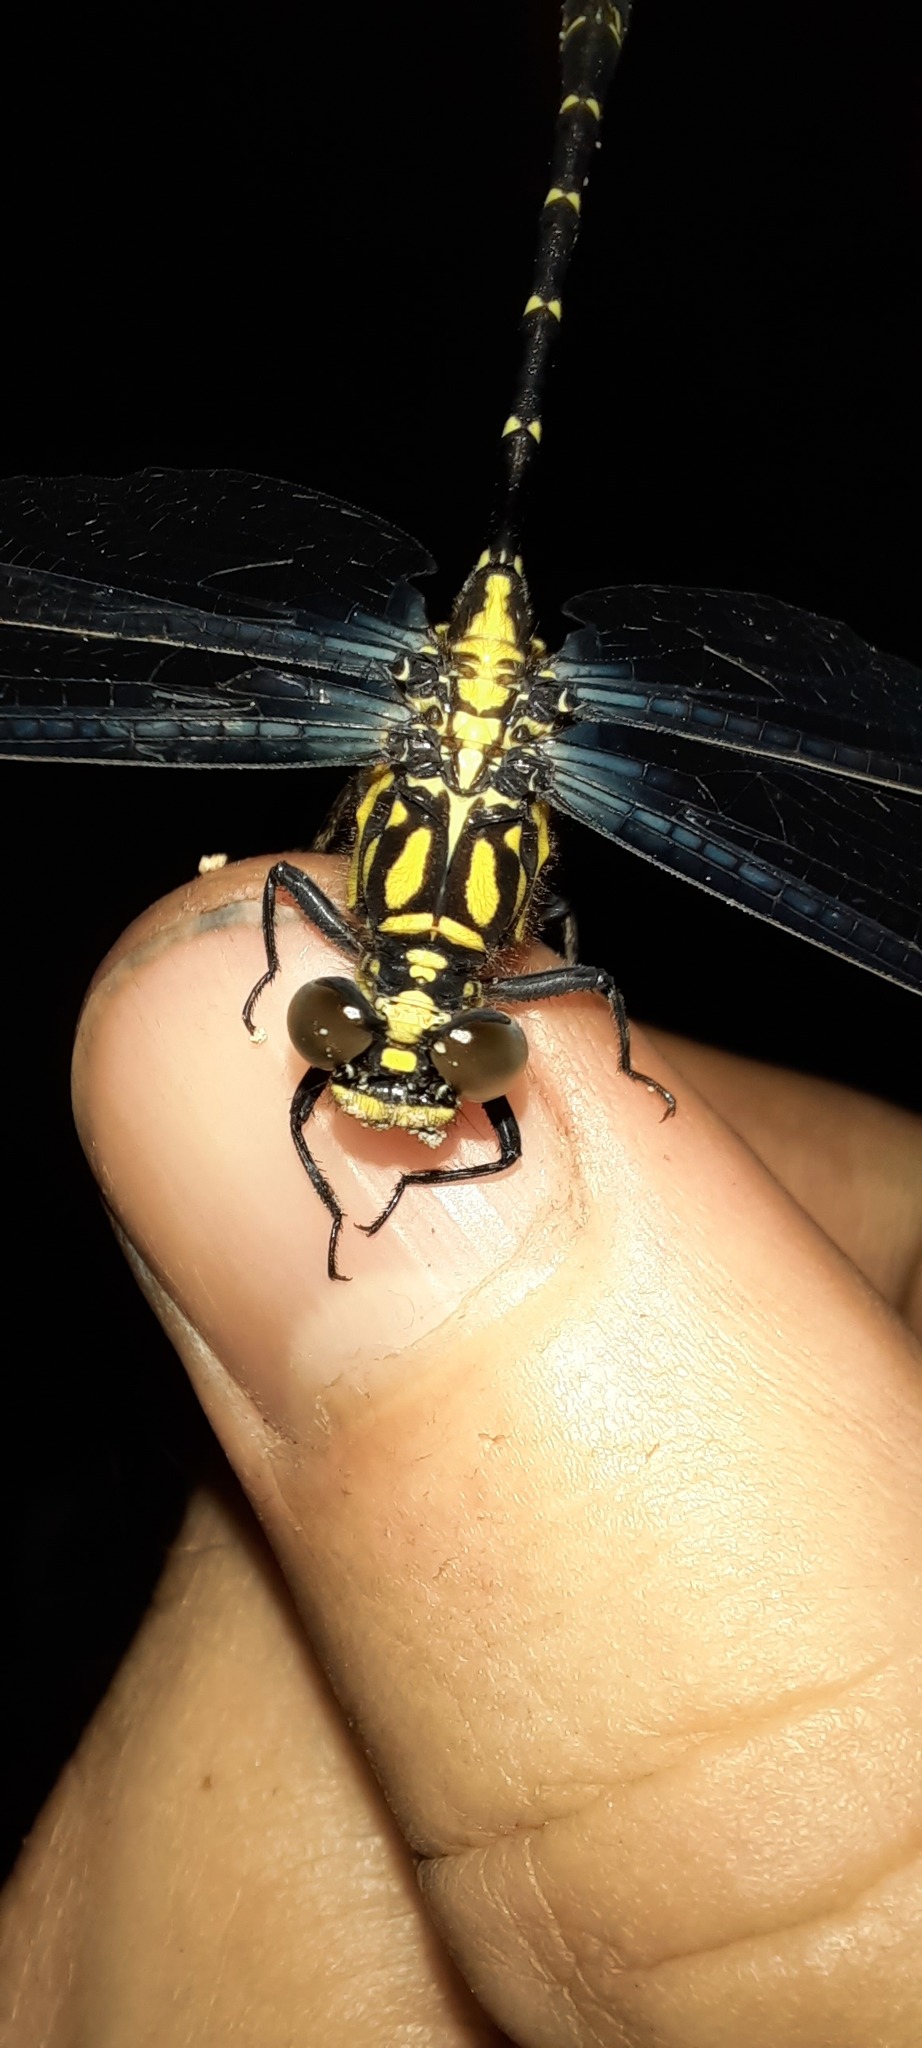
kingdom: Animalia
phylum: Arthropoda
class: Insecta
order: Odonata
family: Gomphidae
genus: Hemigomphus
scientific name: Hemigomphus gouldii
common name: Southern vicetail
